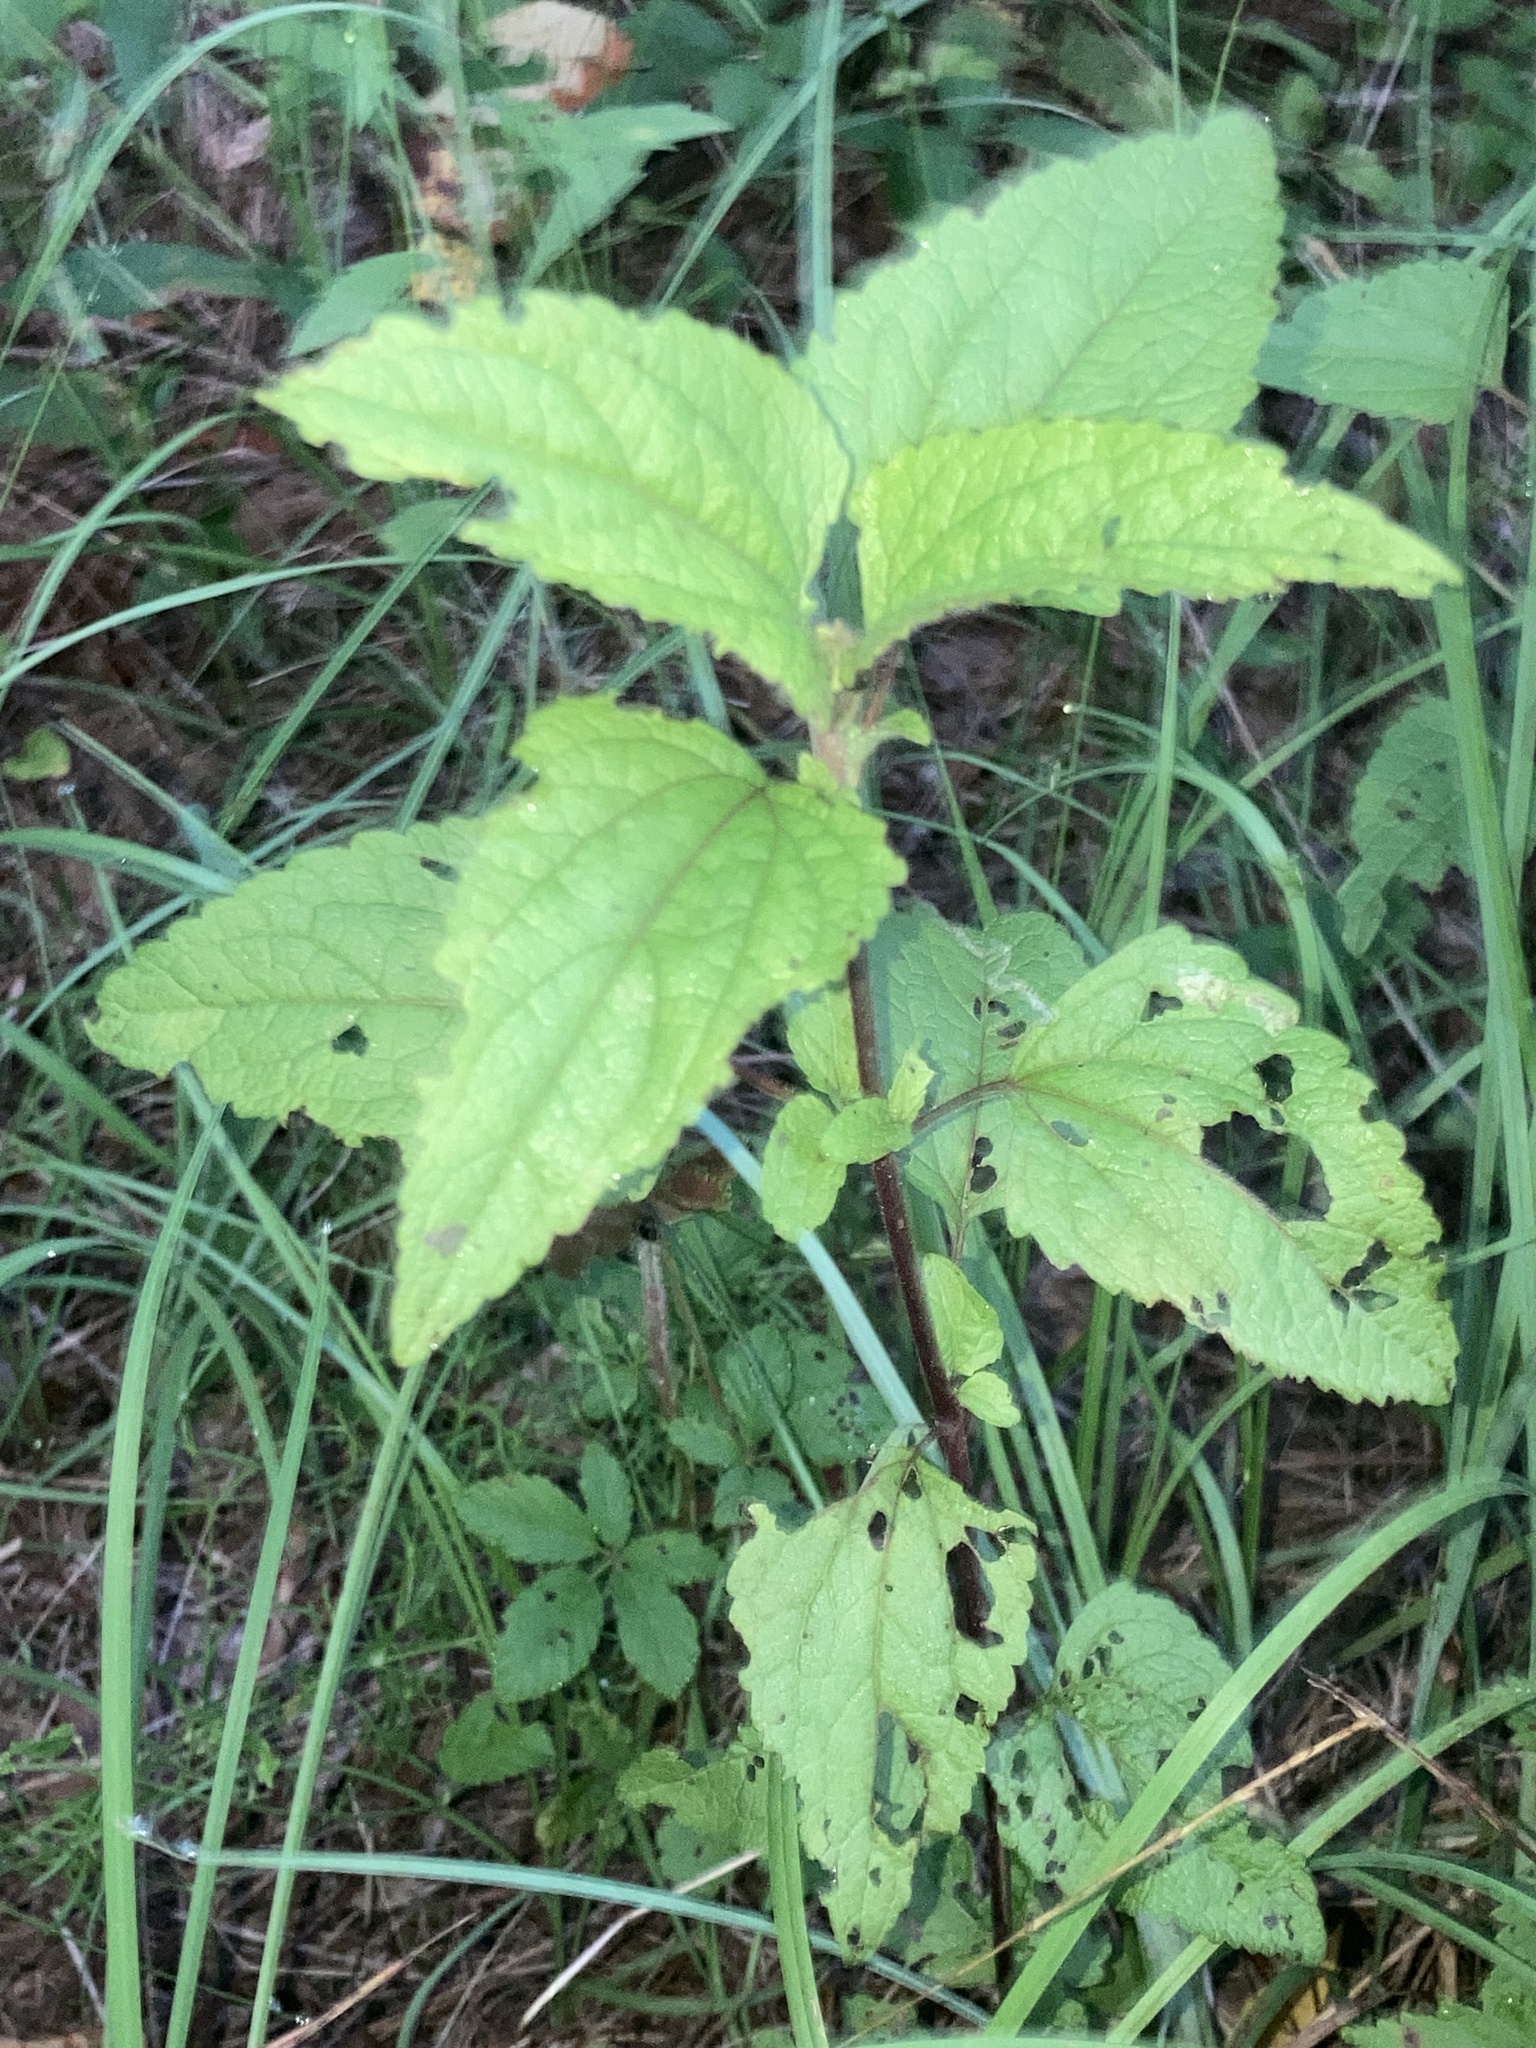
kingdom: Plantae
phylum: Tracheophyta
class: Magnoliopsida
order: Asterales
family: Asteraceae
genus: Conoclinium
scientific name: Conoclinium coelestinum
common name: Blue mistflower
